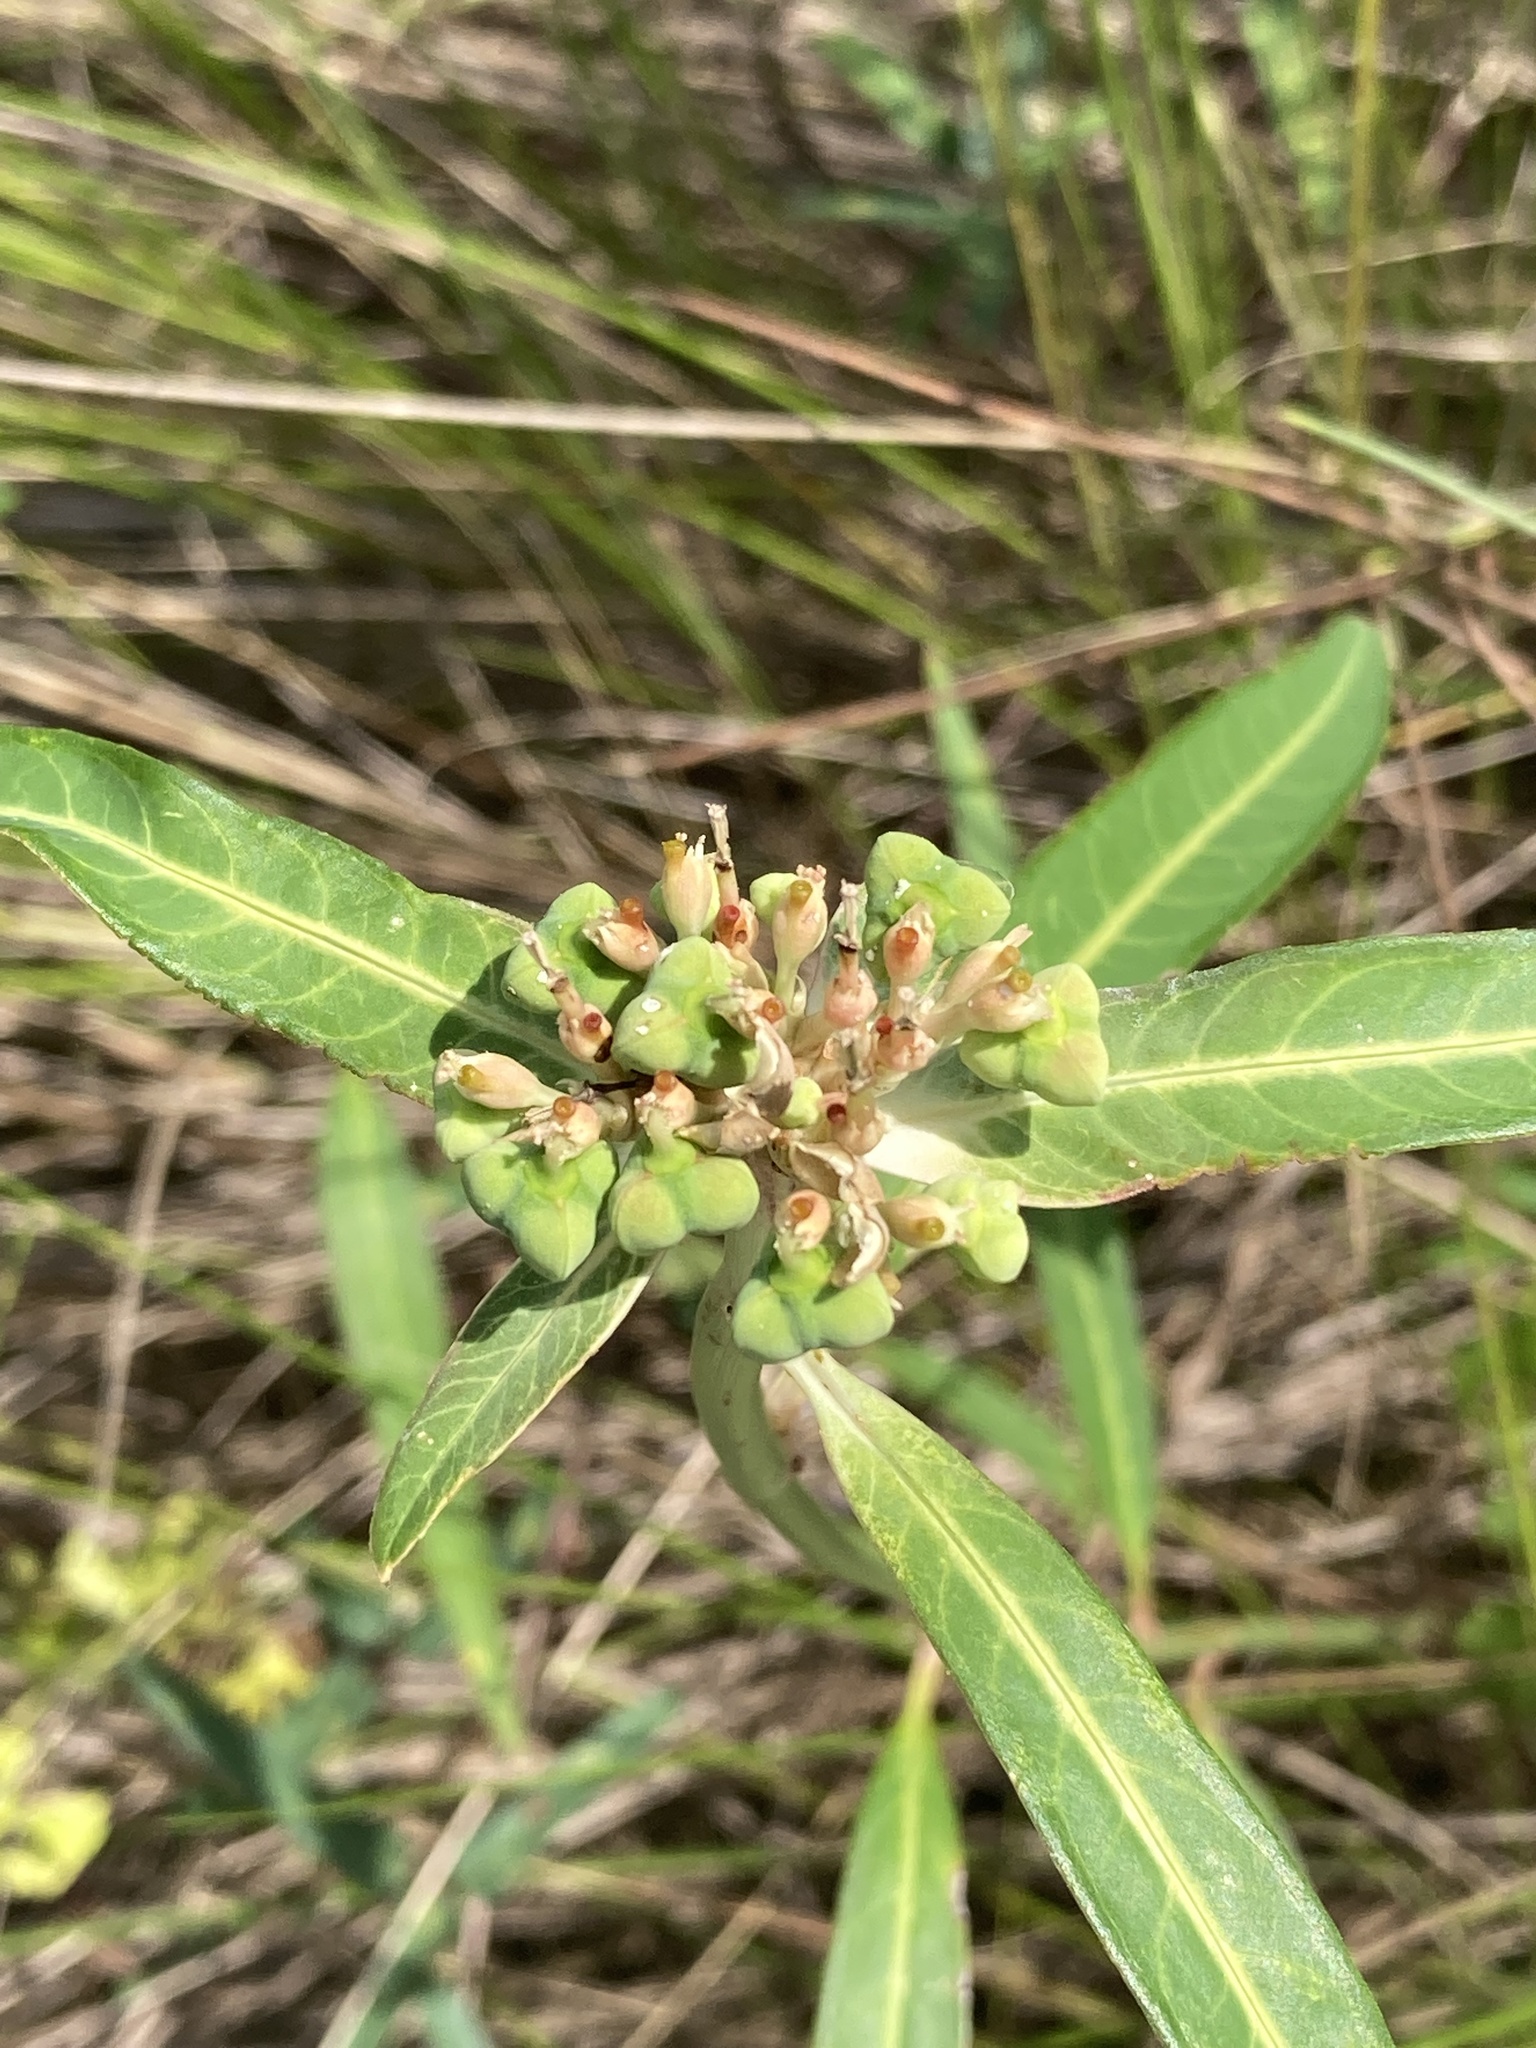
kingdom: Plantae
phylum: Tracheophyta
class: Magnoliopsida
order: Malpighiales
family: Euphorbiaceae
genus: Euphorbia
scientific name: Euphorbia heterophylla
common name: Mexican fireplant
